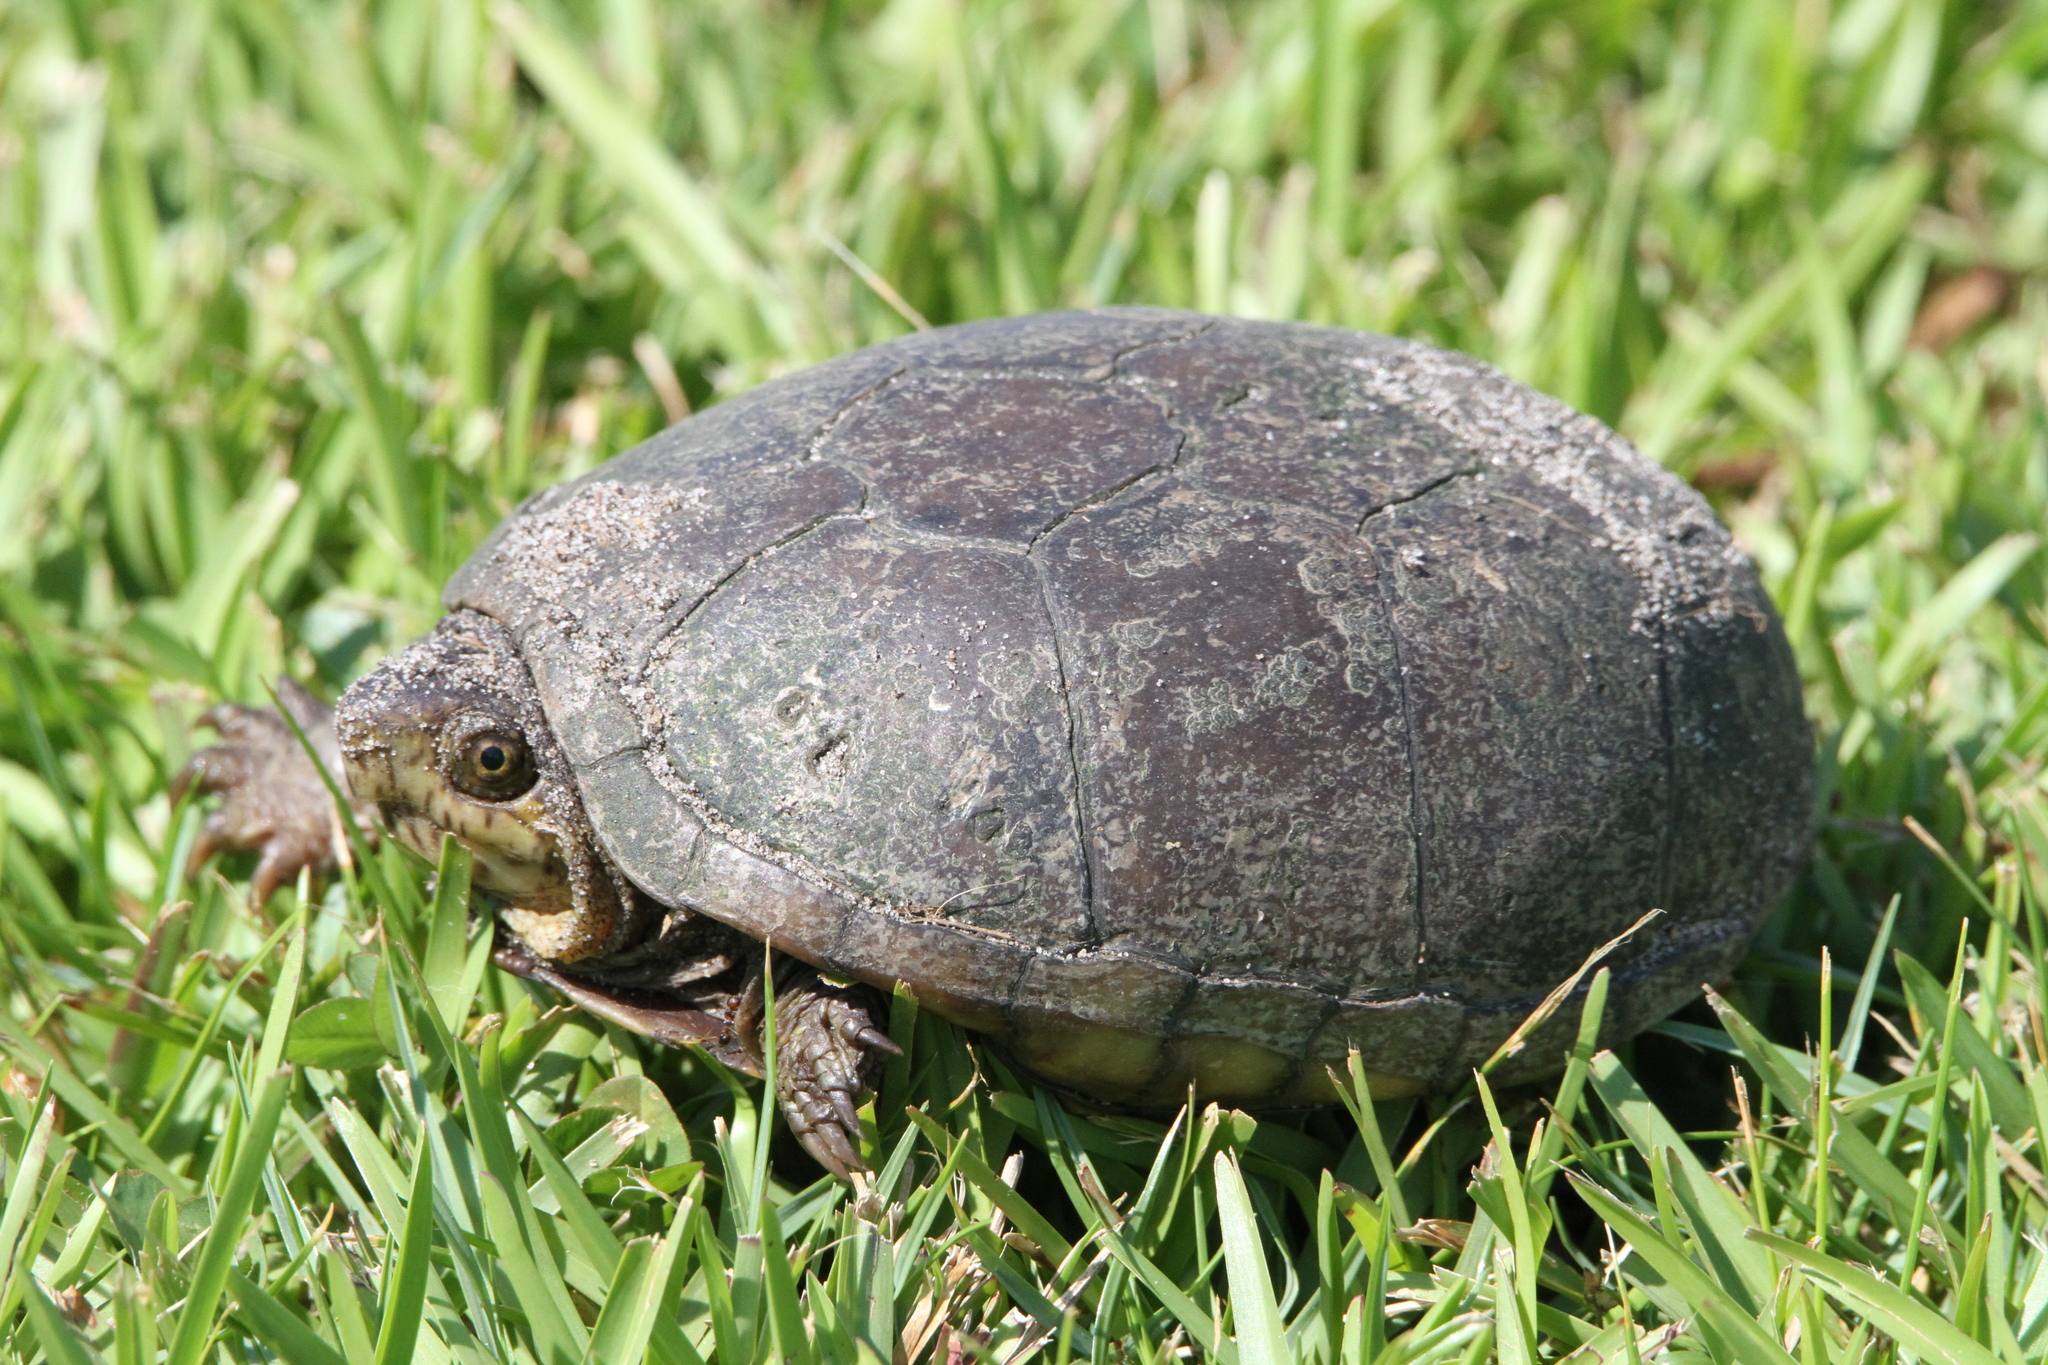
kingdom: Animalia
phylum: Chordata
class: Testudines
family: Kinosternidae
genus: Kinosternon
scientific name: Kinosternon subrubrum
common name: Eastern mud turtle
